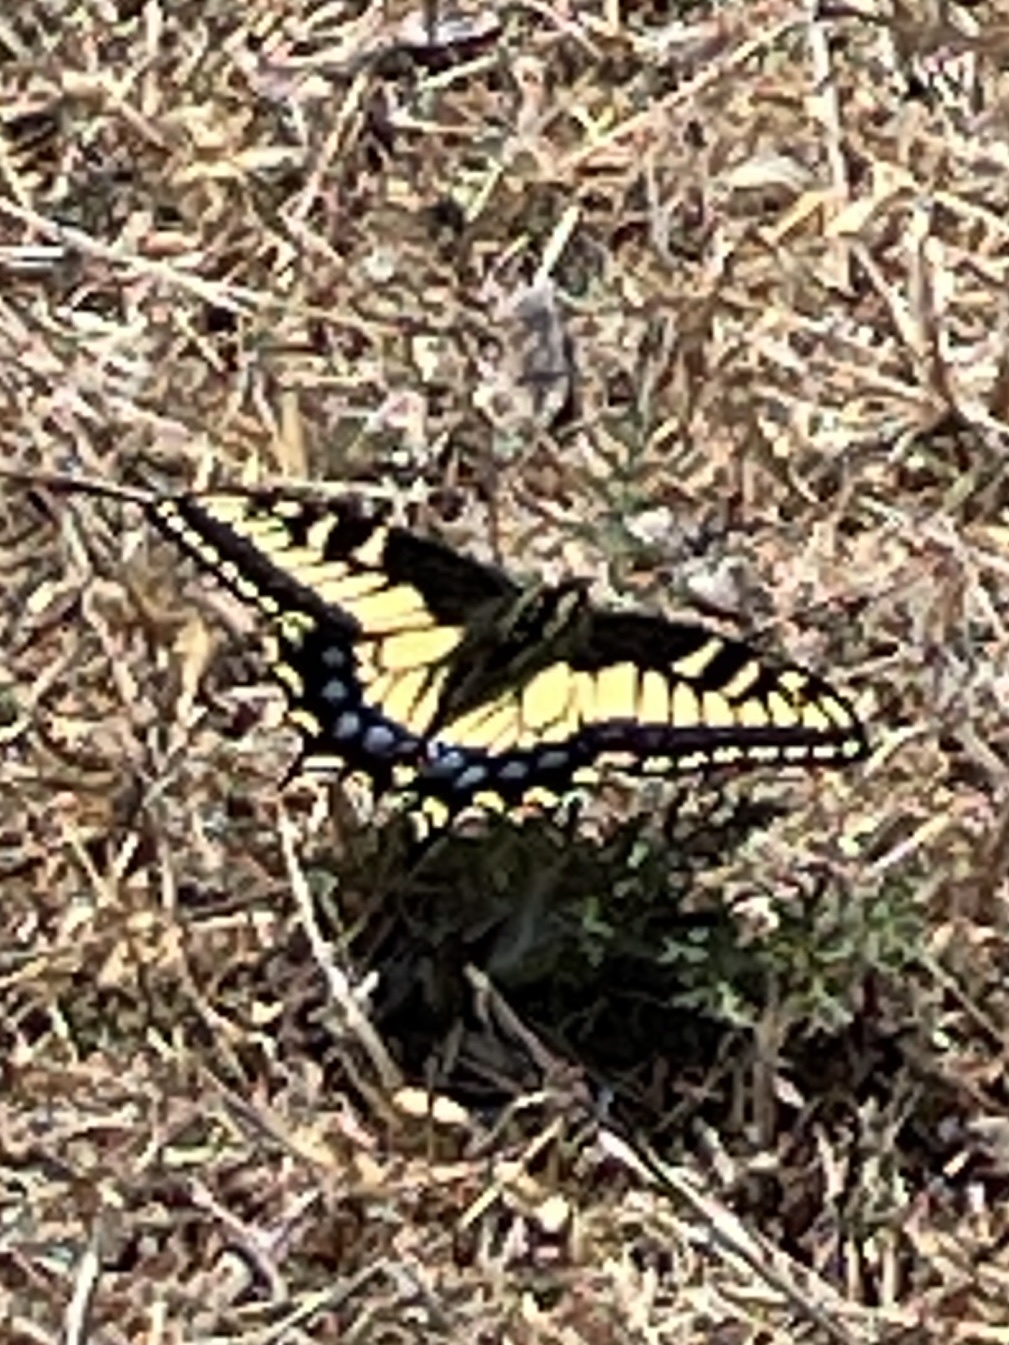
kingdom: Animalia
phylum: Arthropoda
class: Insecta
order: Lepidoptera
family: Papilionidae
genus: Papilio
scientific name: Papilio zelicaon
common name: Anise swallowtail
